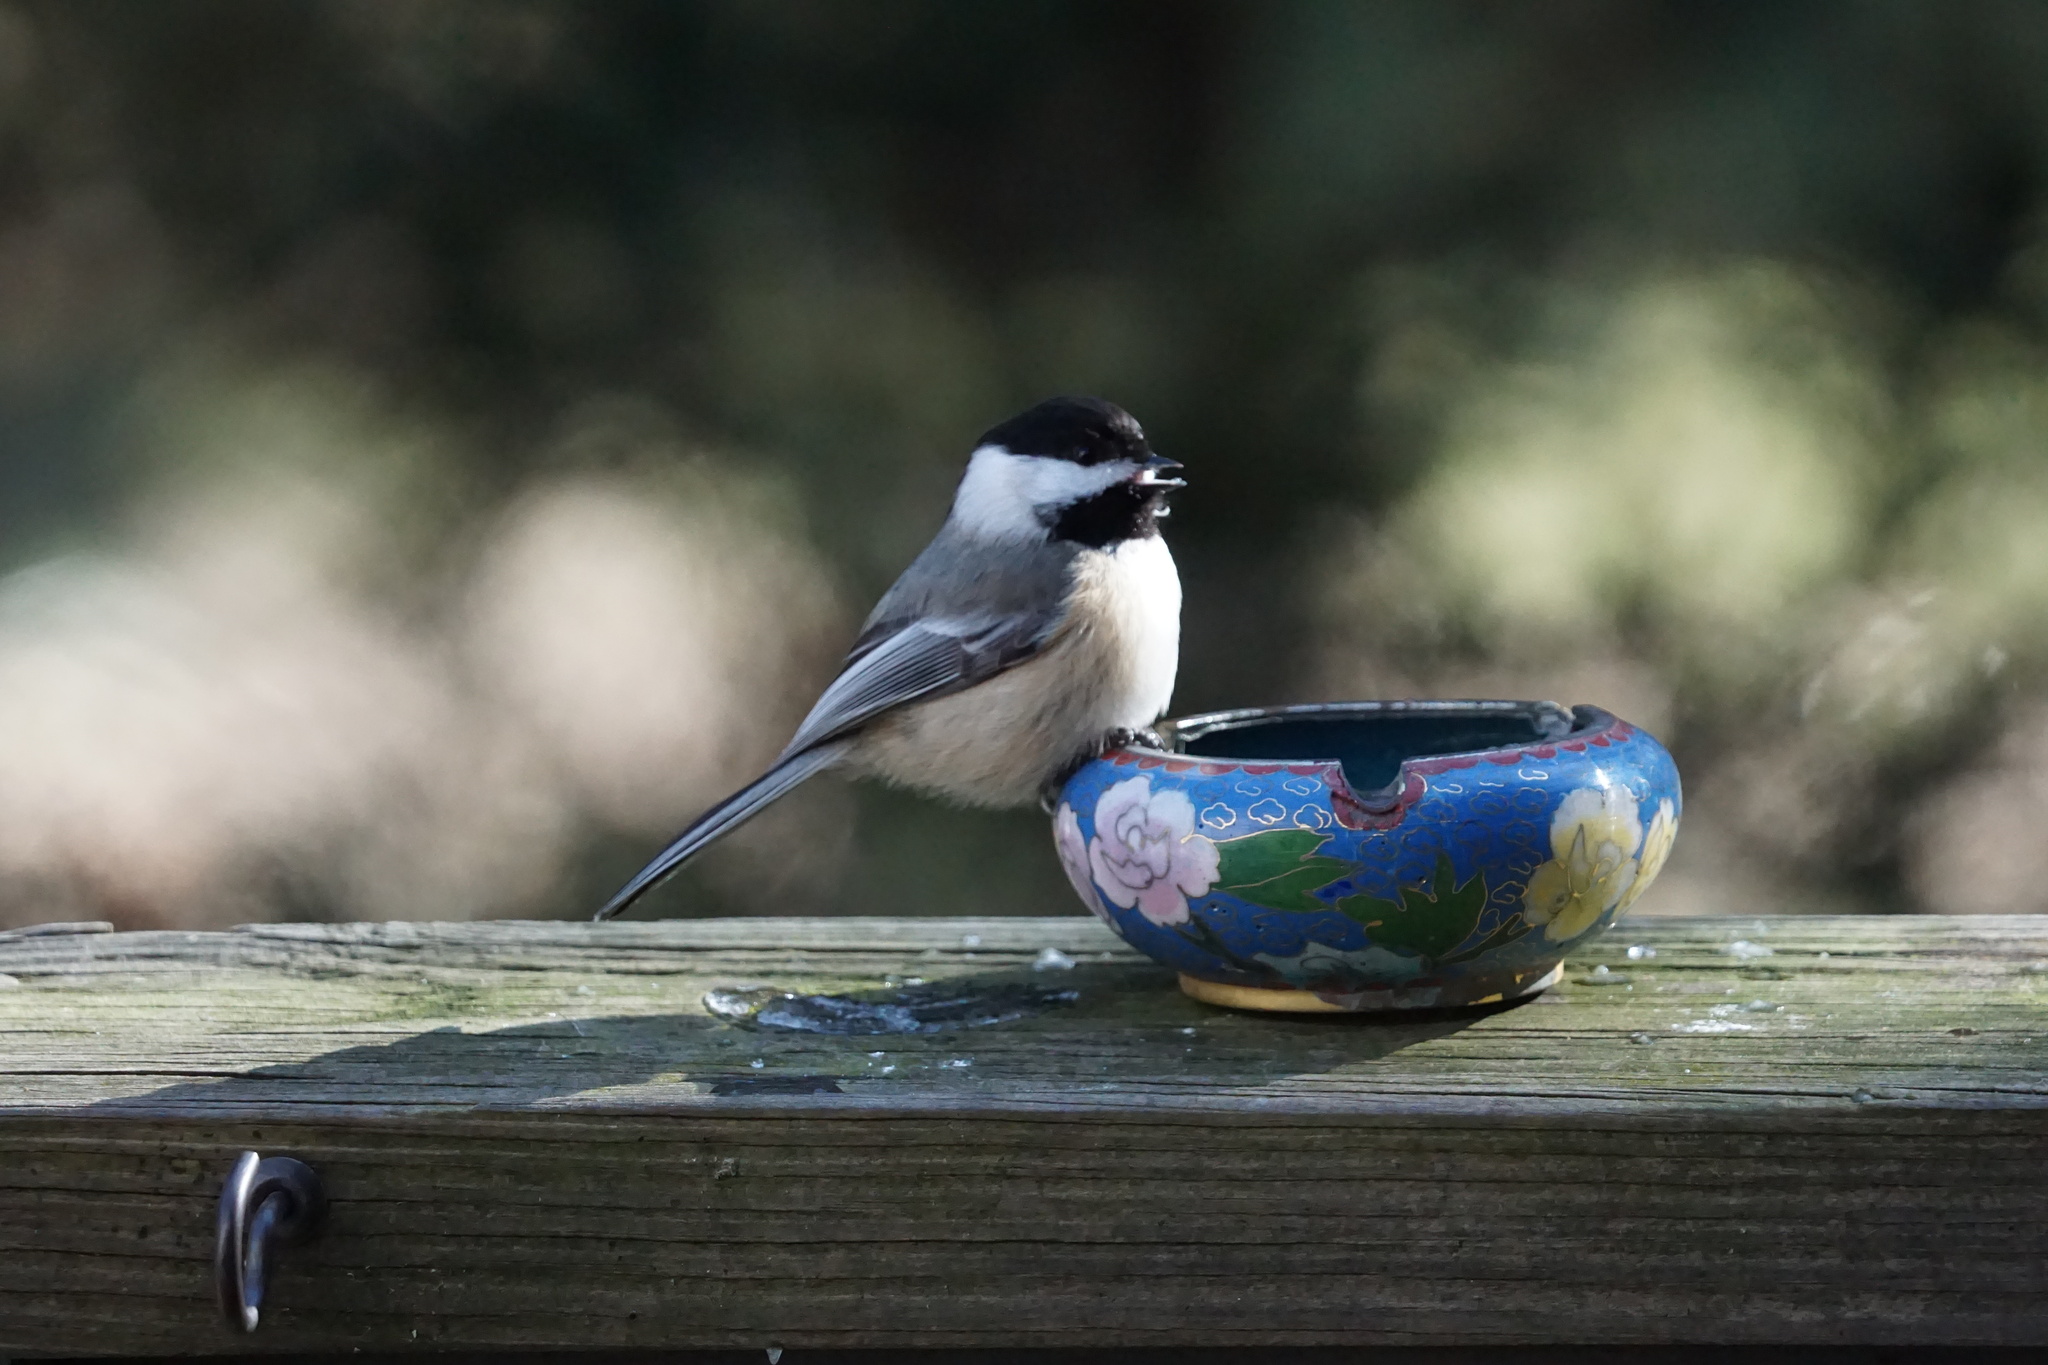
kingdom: Animalia
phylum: Chordata
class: Aves
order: Passeriformes
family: Paridae
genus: Poecile
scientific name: Poecile atricapillus
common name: Black-capped chickadee
